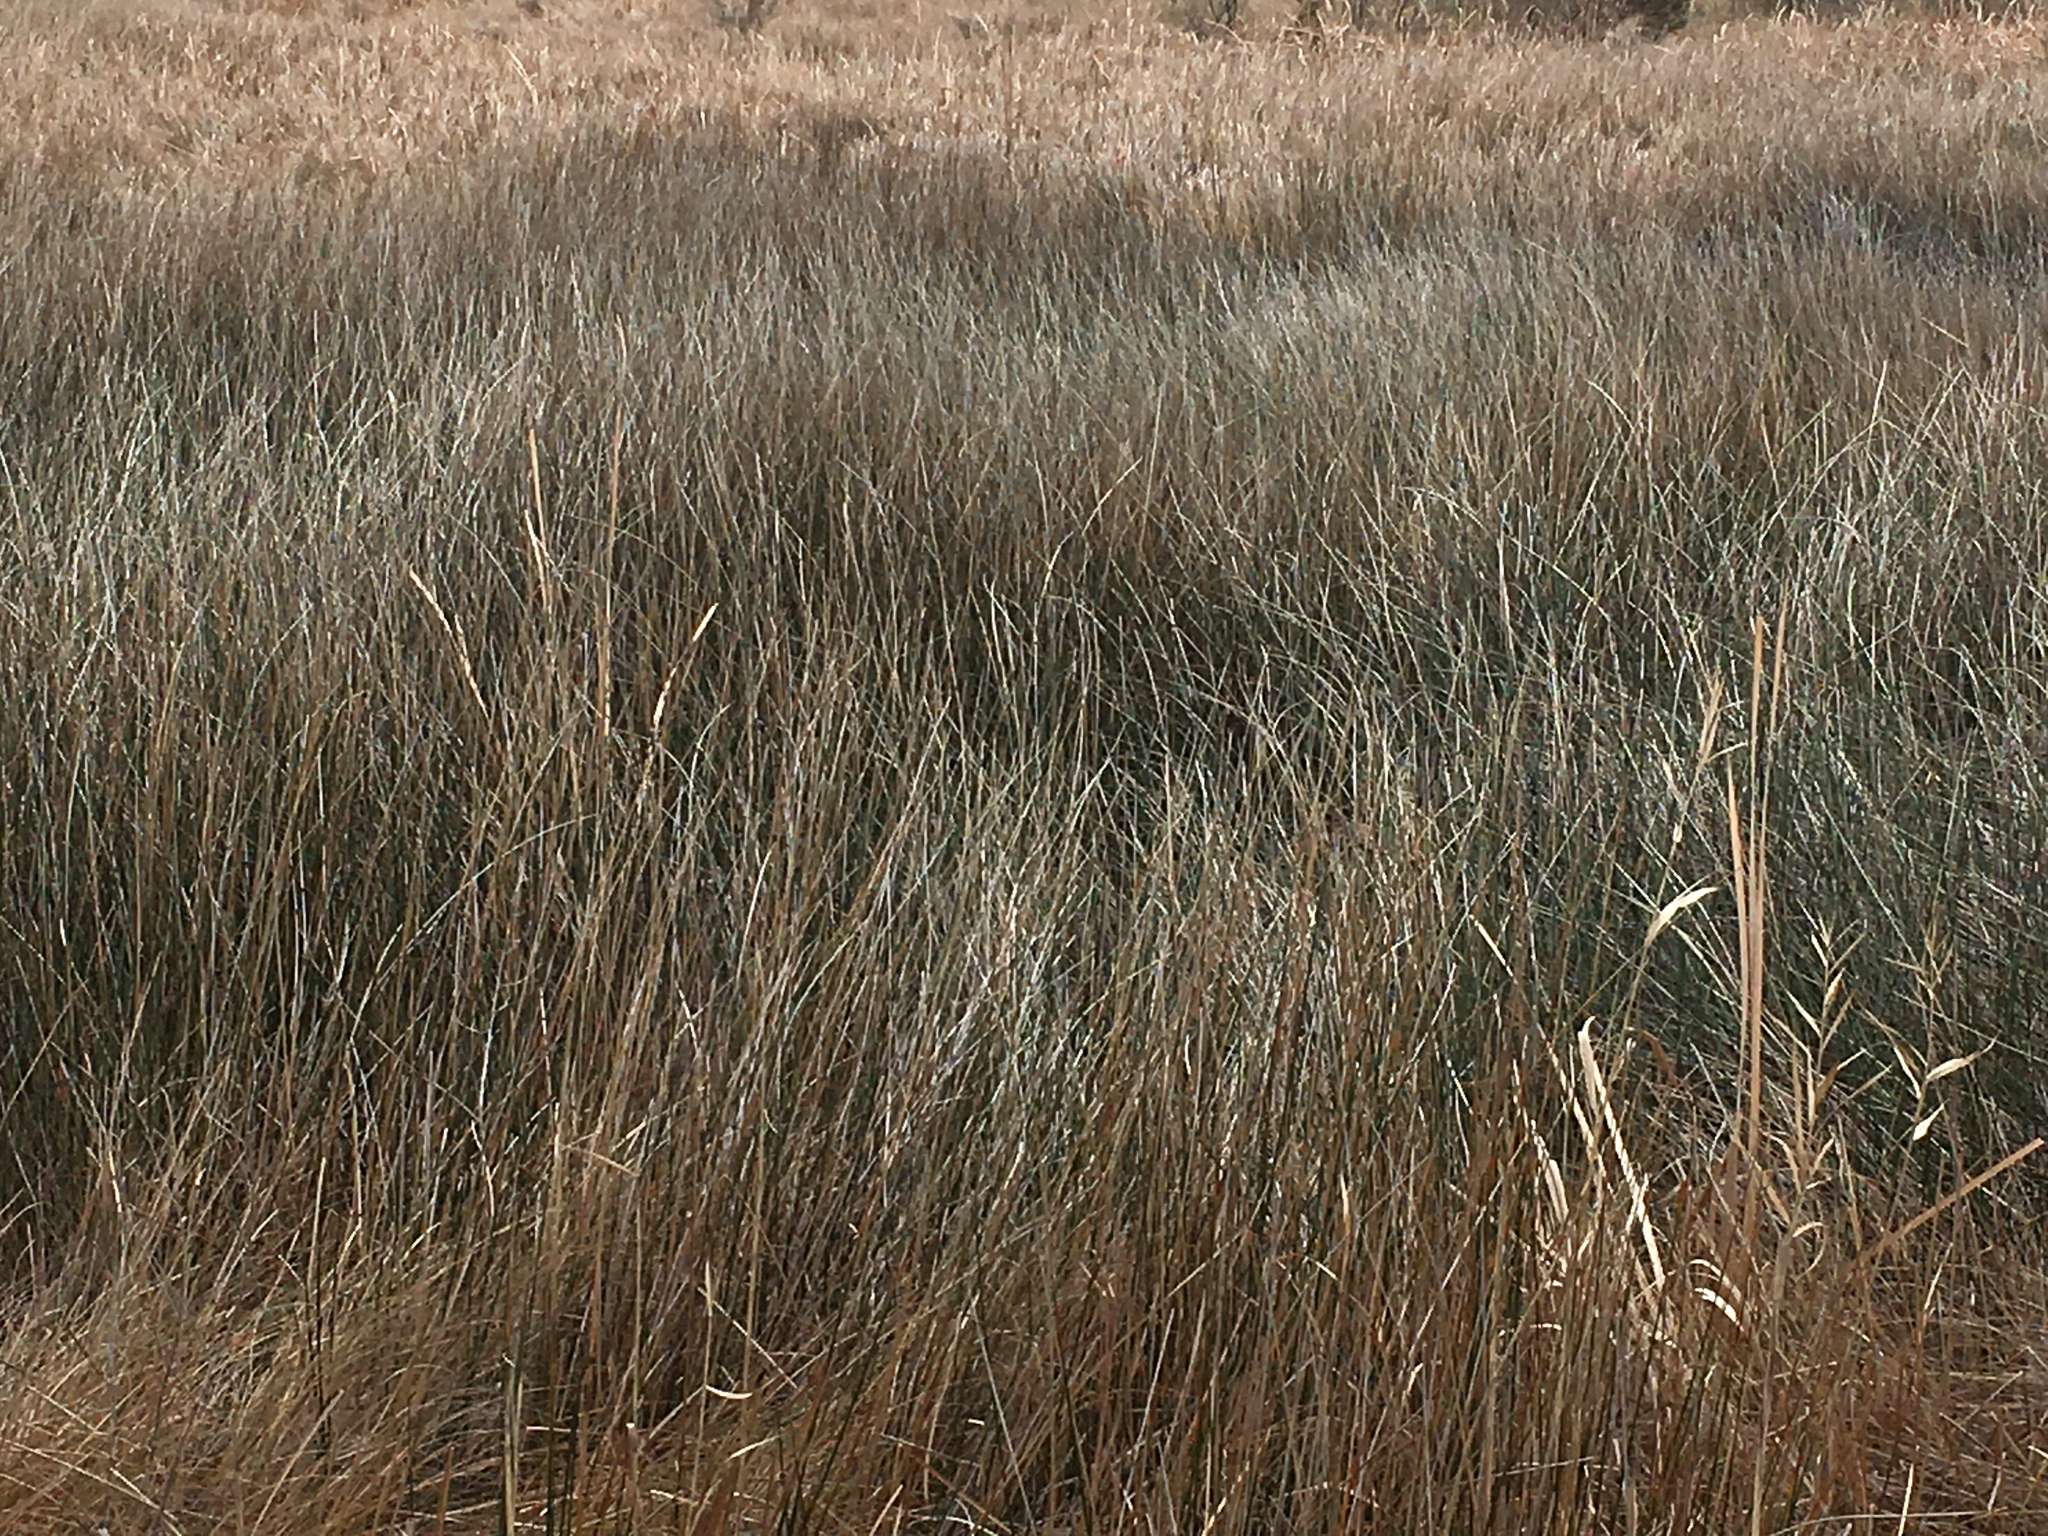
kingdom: Plantae
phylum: Tracheophyta
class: Liliopsida
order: Poales
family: Juncaceae
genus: Juncus
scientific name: Juncus roemerianus
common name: Roemer's rush
